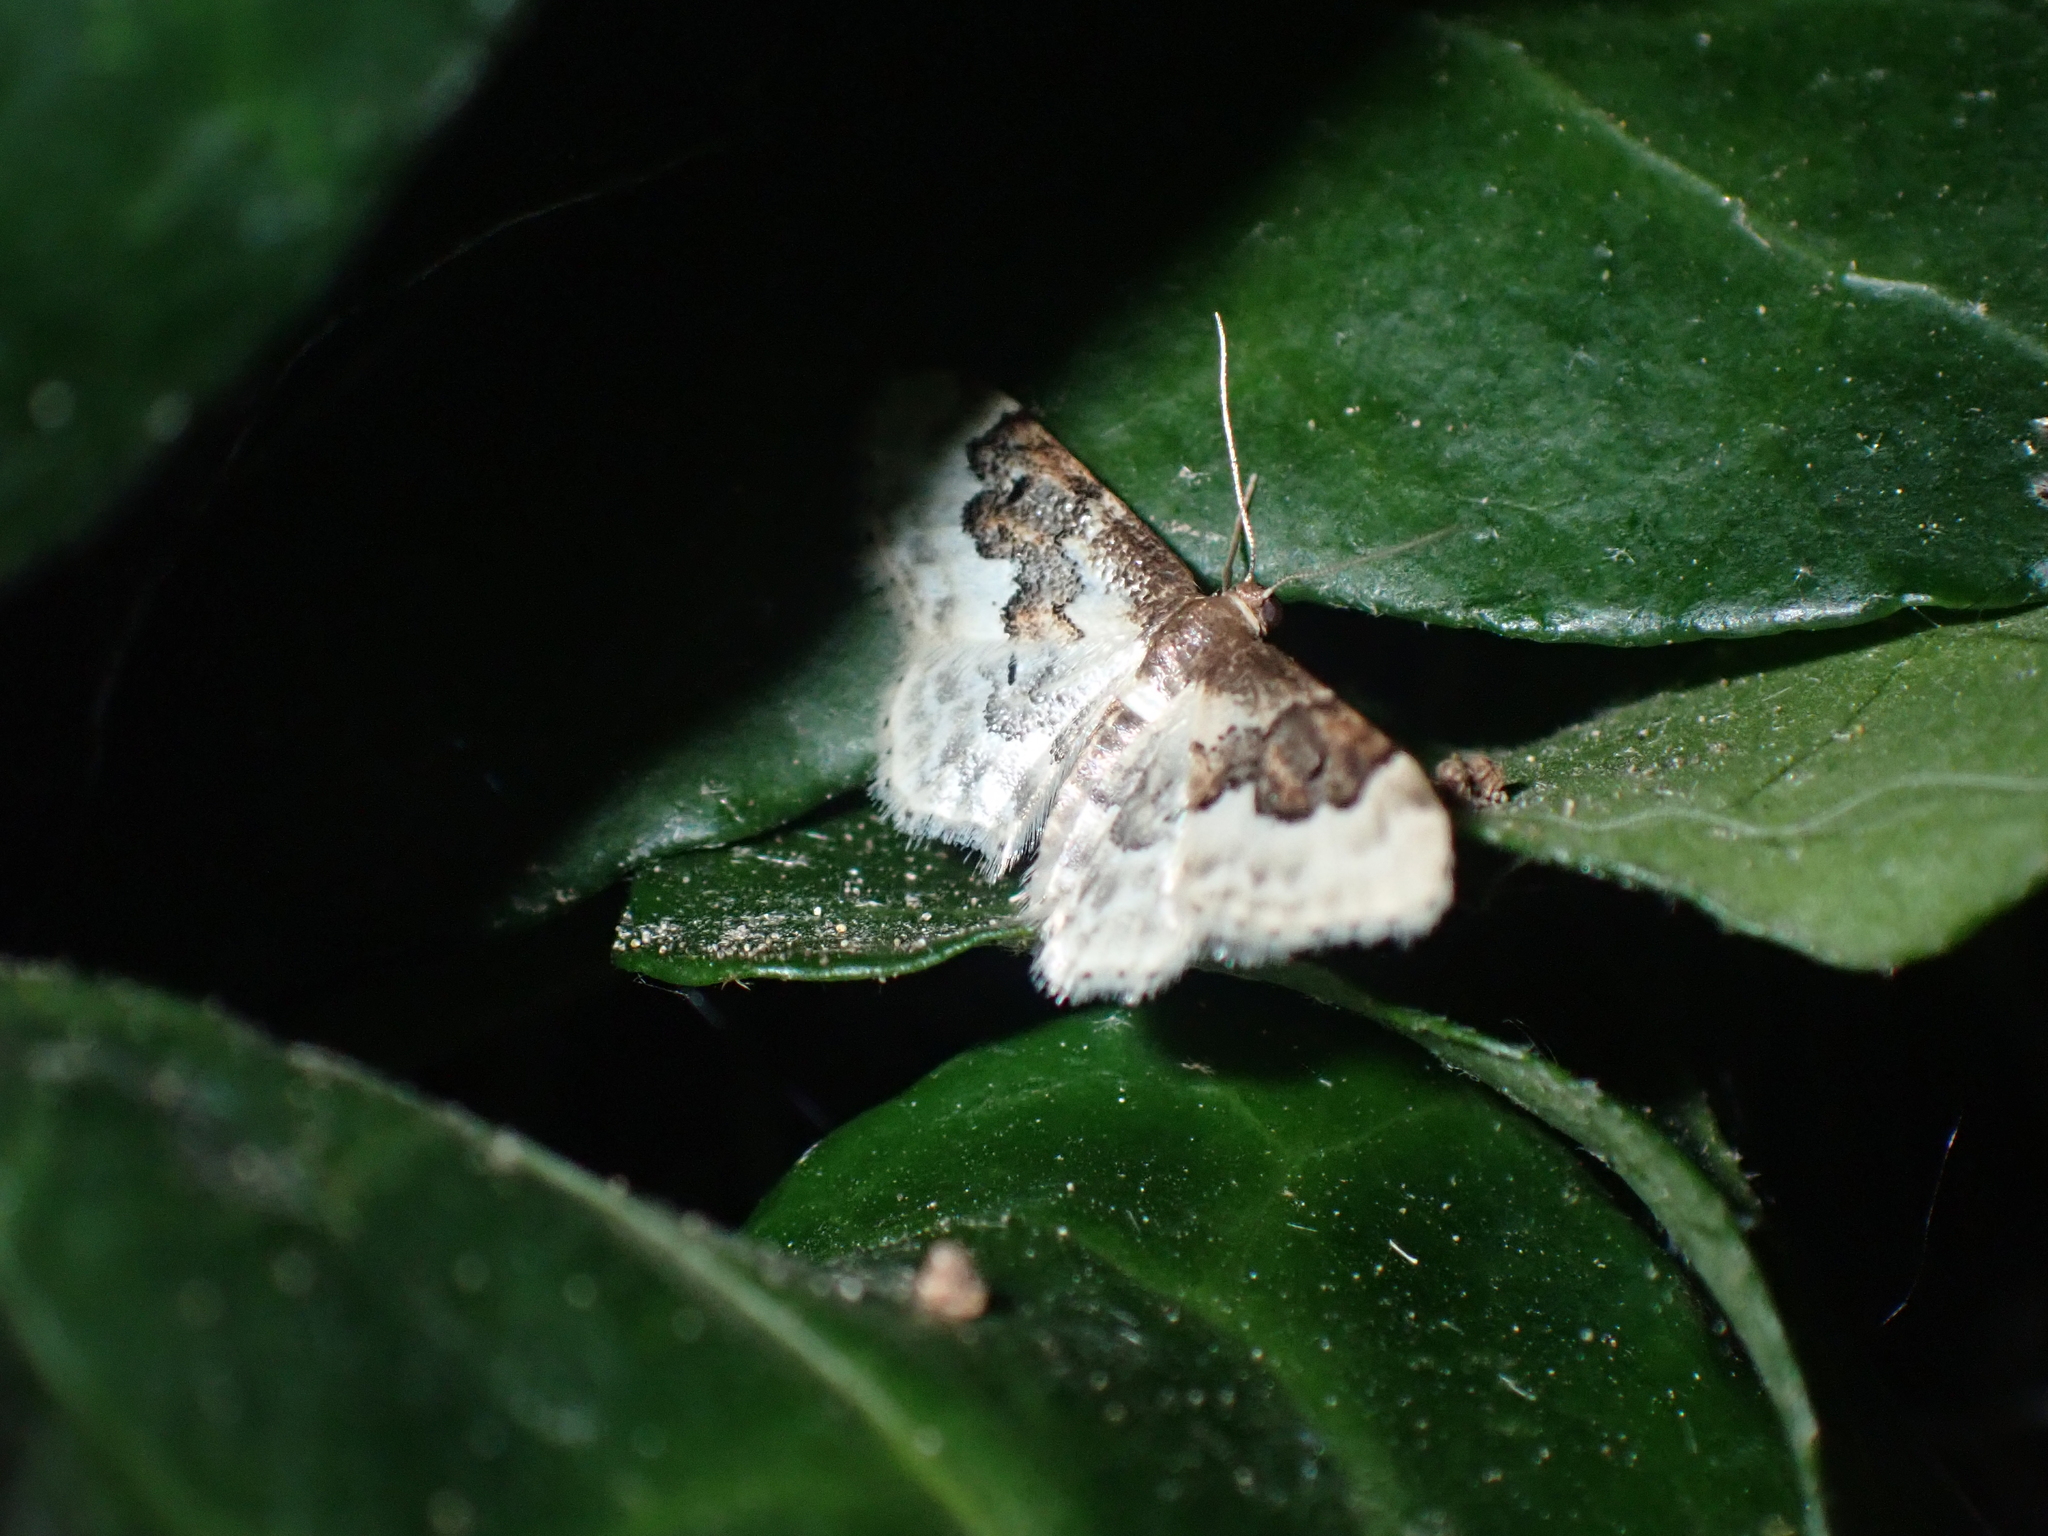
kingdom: Animalia
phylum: Arthropoda
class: Insecta
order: Lepidoptera
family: Geometridae
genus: Idaea
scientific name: Idaea rusticata
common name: Least carpet
